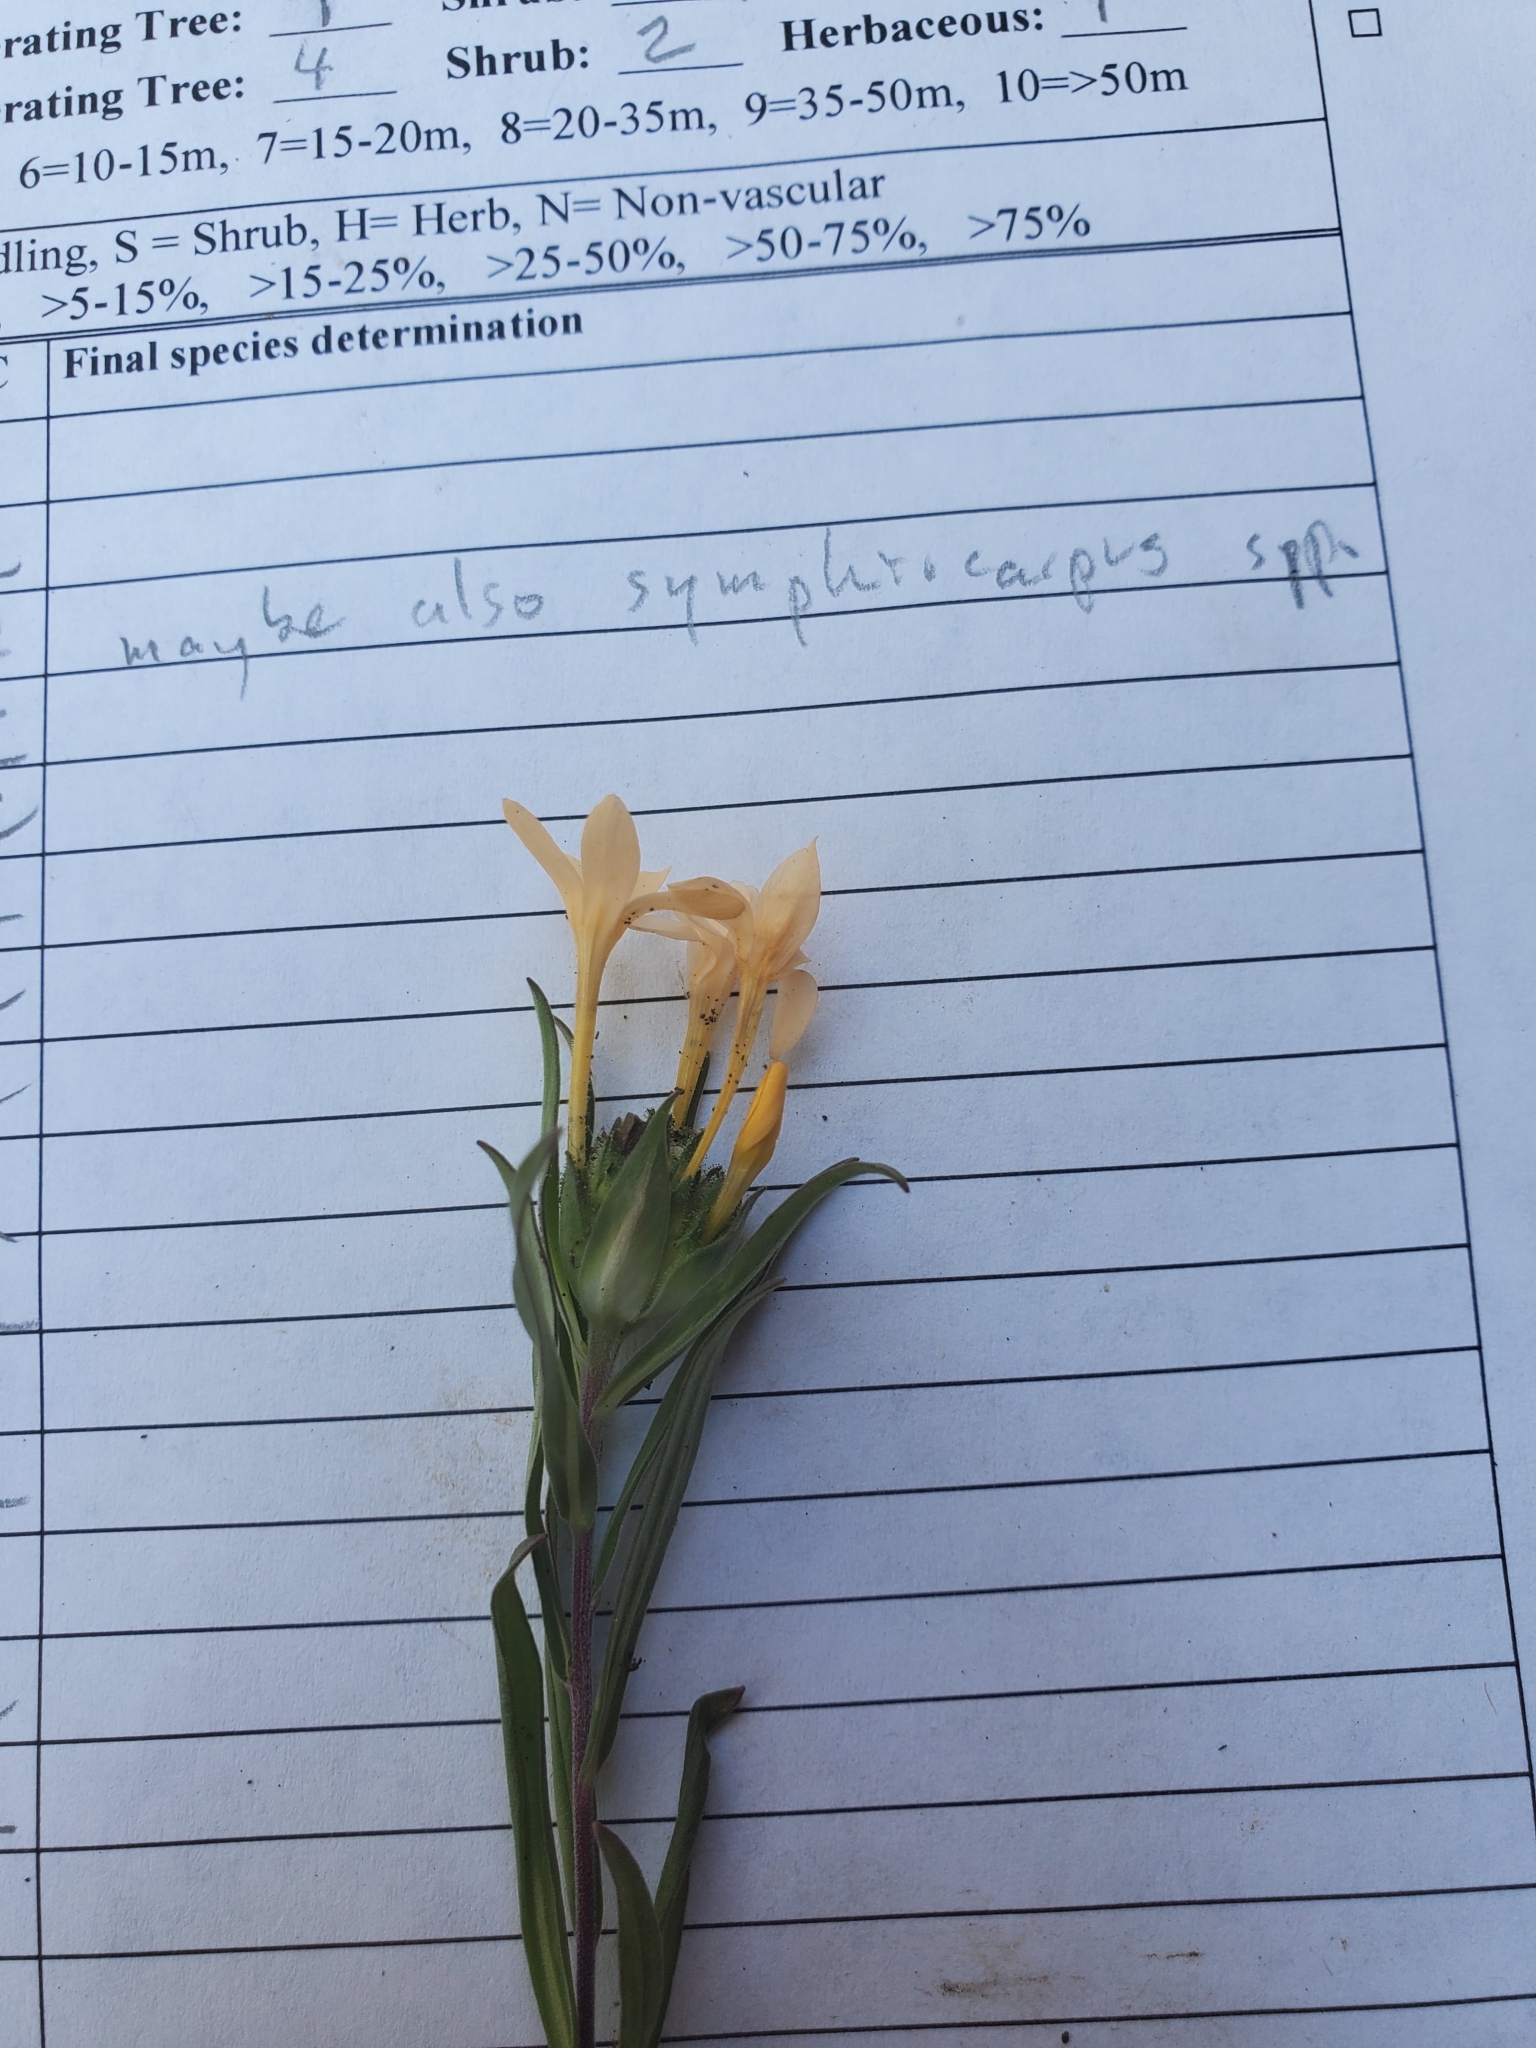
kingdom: Plantae
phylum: Tracheophyta
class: Magnoliopsida
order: Ericales
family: Polemoniaceae
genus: Collomia
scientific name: Collomia grandiflora
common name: California strawflower
